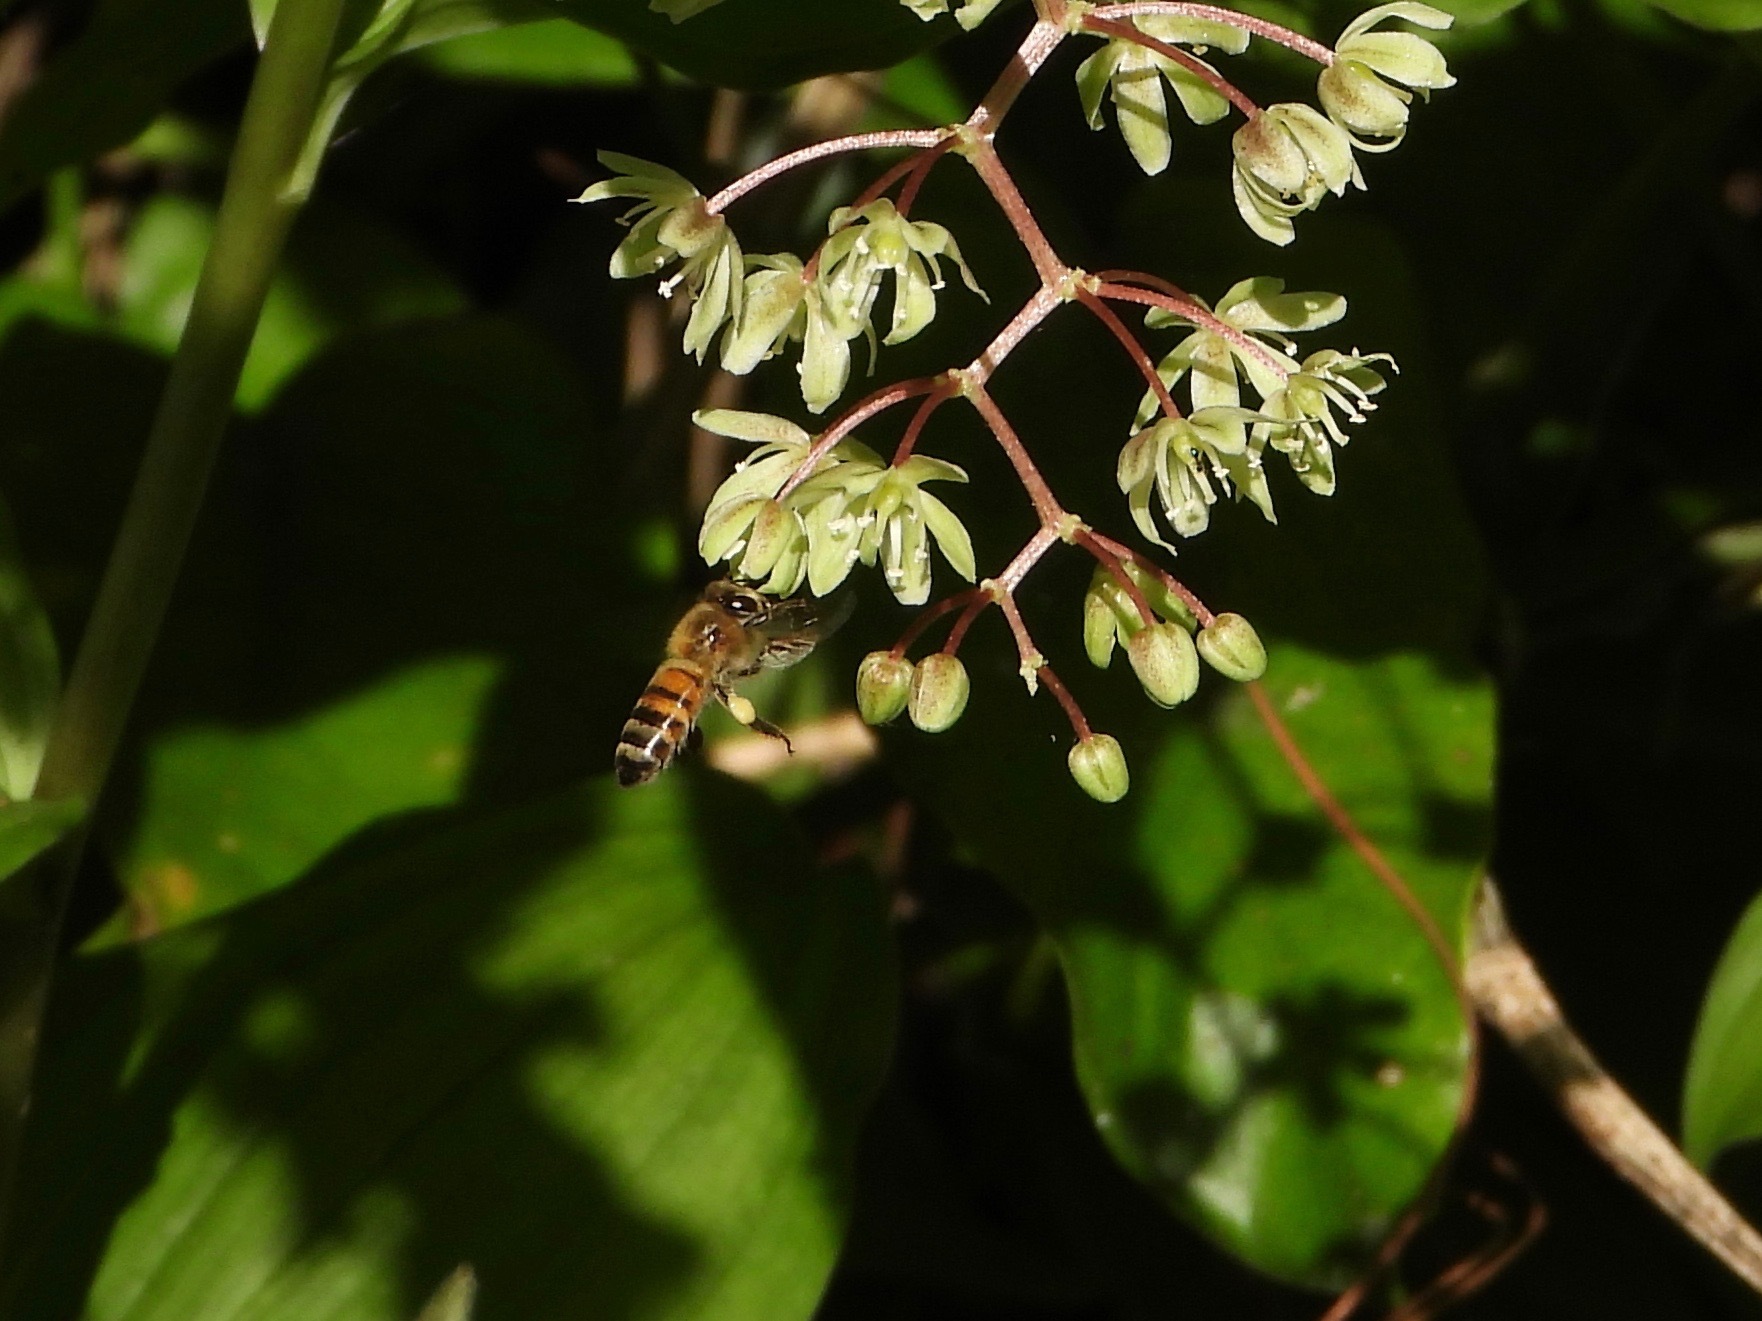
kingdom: Animalia
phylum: Arthropoda
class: Insecta
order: Hymenoptera
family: Apidae
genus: Apis
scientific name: Apis mellifera
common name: Honey bee
